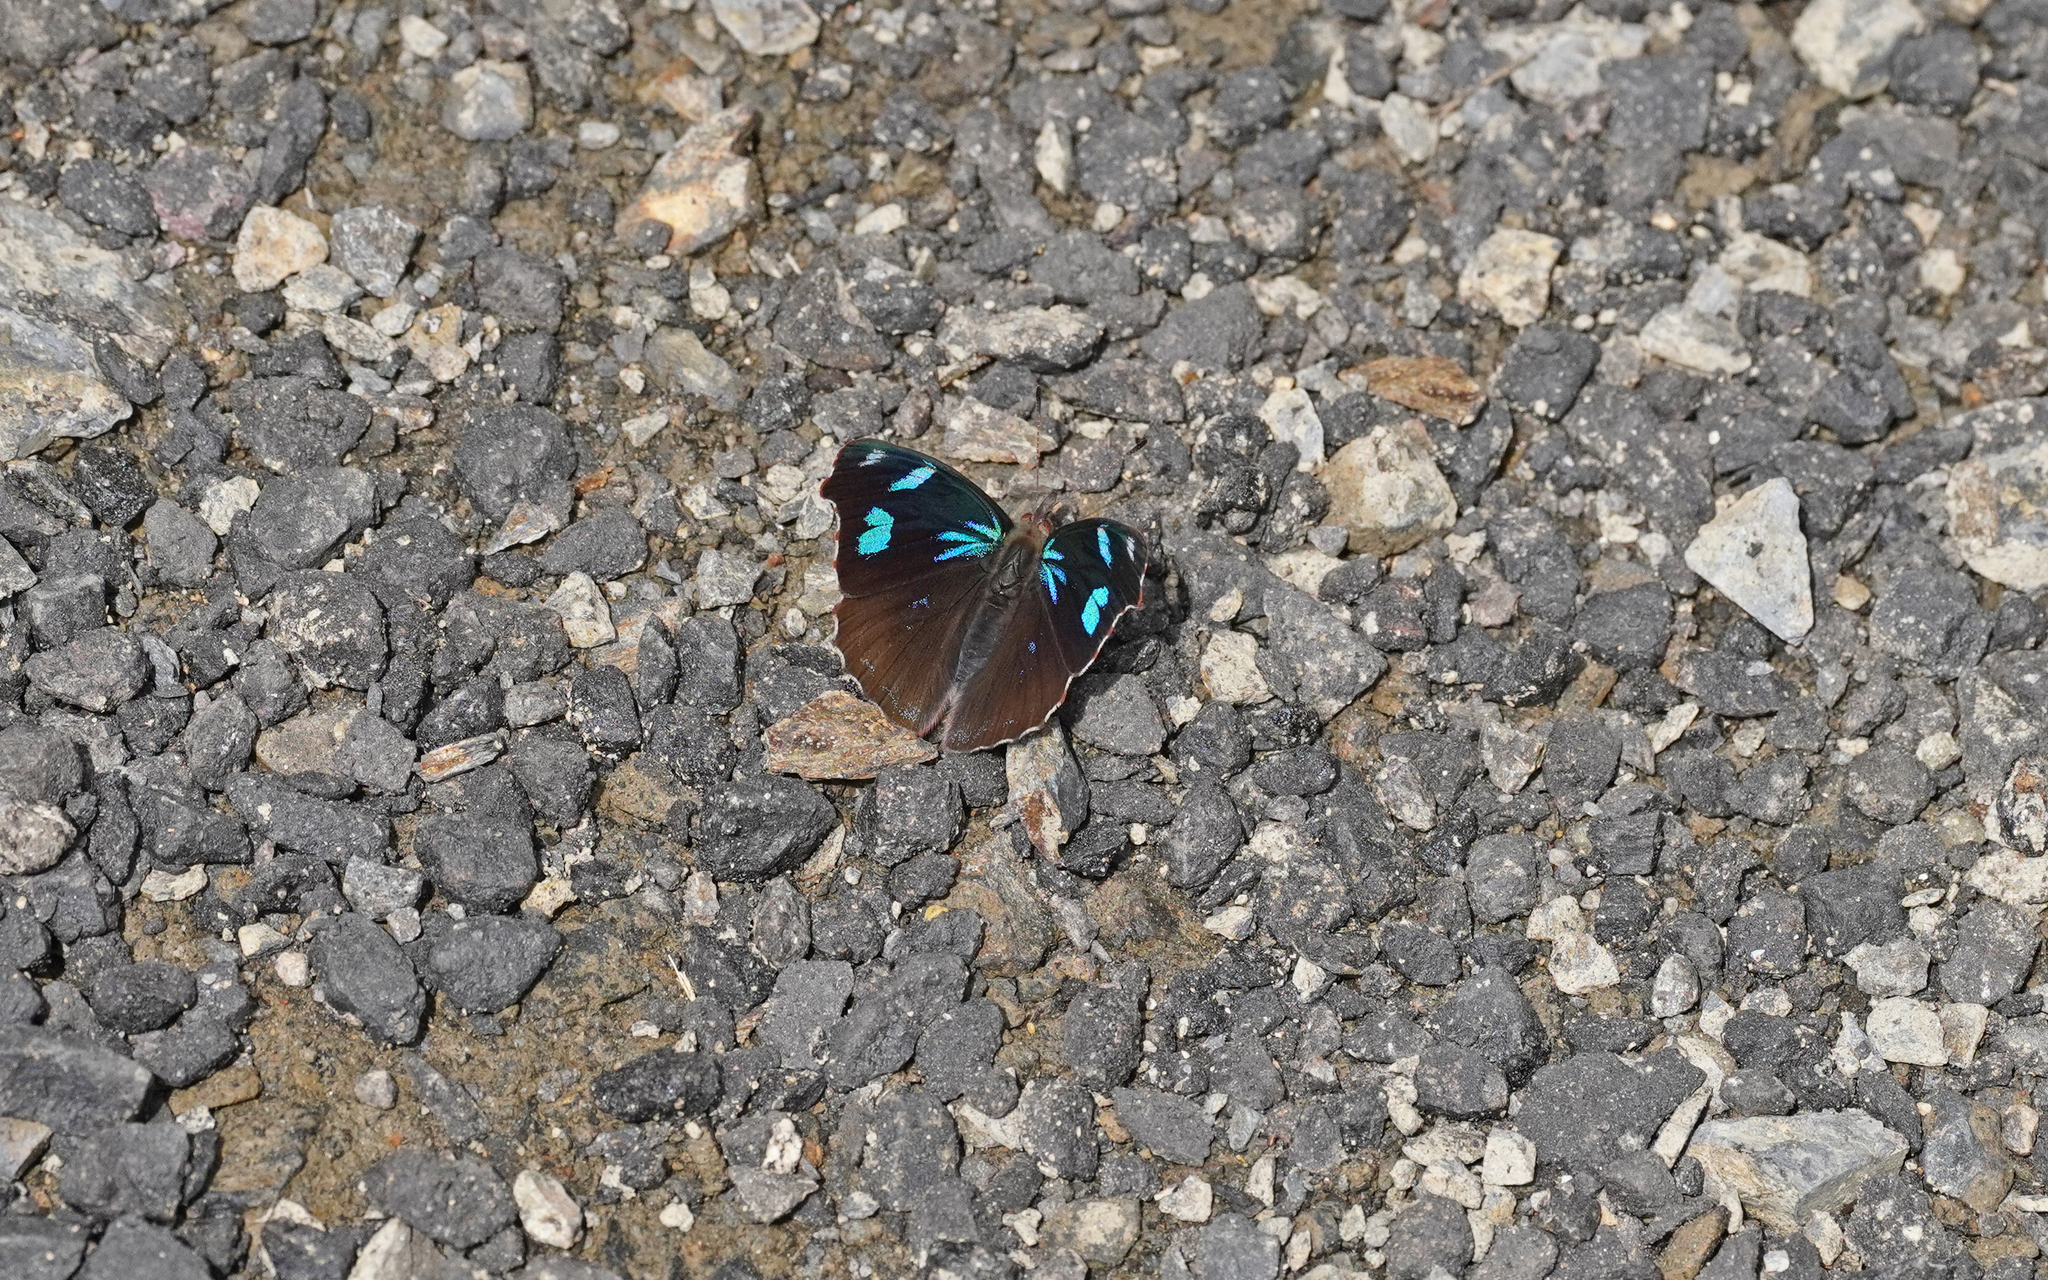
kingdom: Animalia
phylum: Arthropoda
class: Insecta
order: Lepidoptera
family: Nymphalidae
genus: Perisama
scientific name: Perisama diotima
